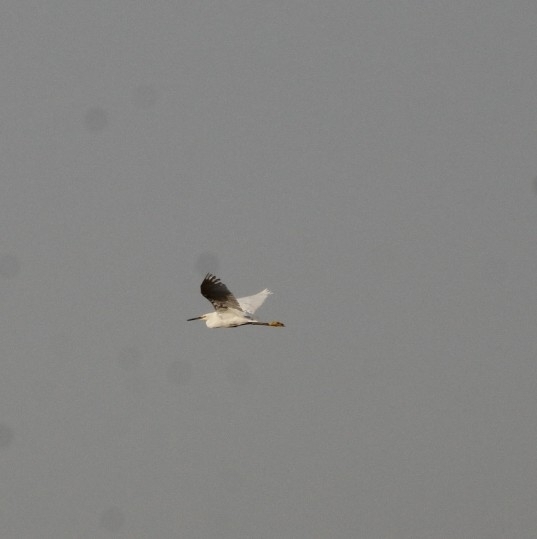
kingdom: Animalia
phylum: Chordata
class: Aves
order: Pelecaniformes
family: Ardeidae
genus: Egretta
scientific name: Egretta thula
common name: Snowy egret
